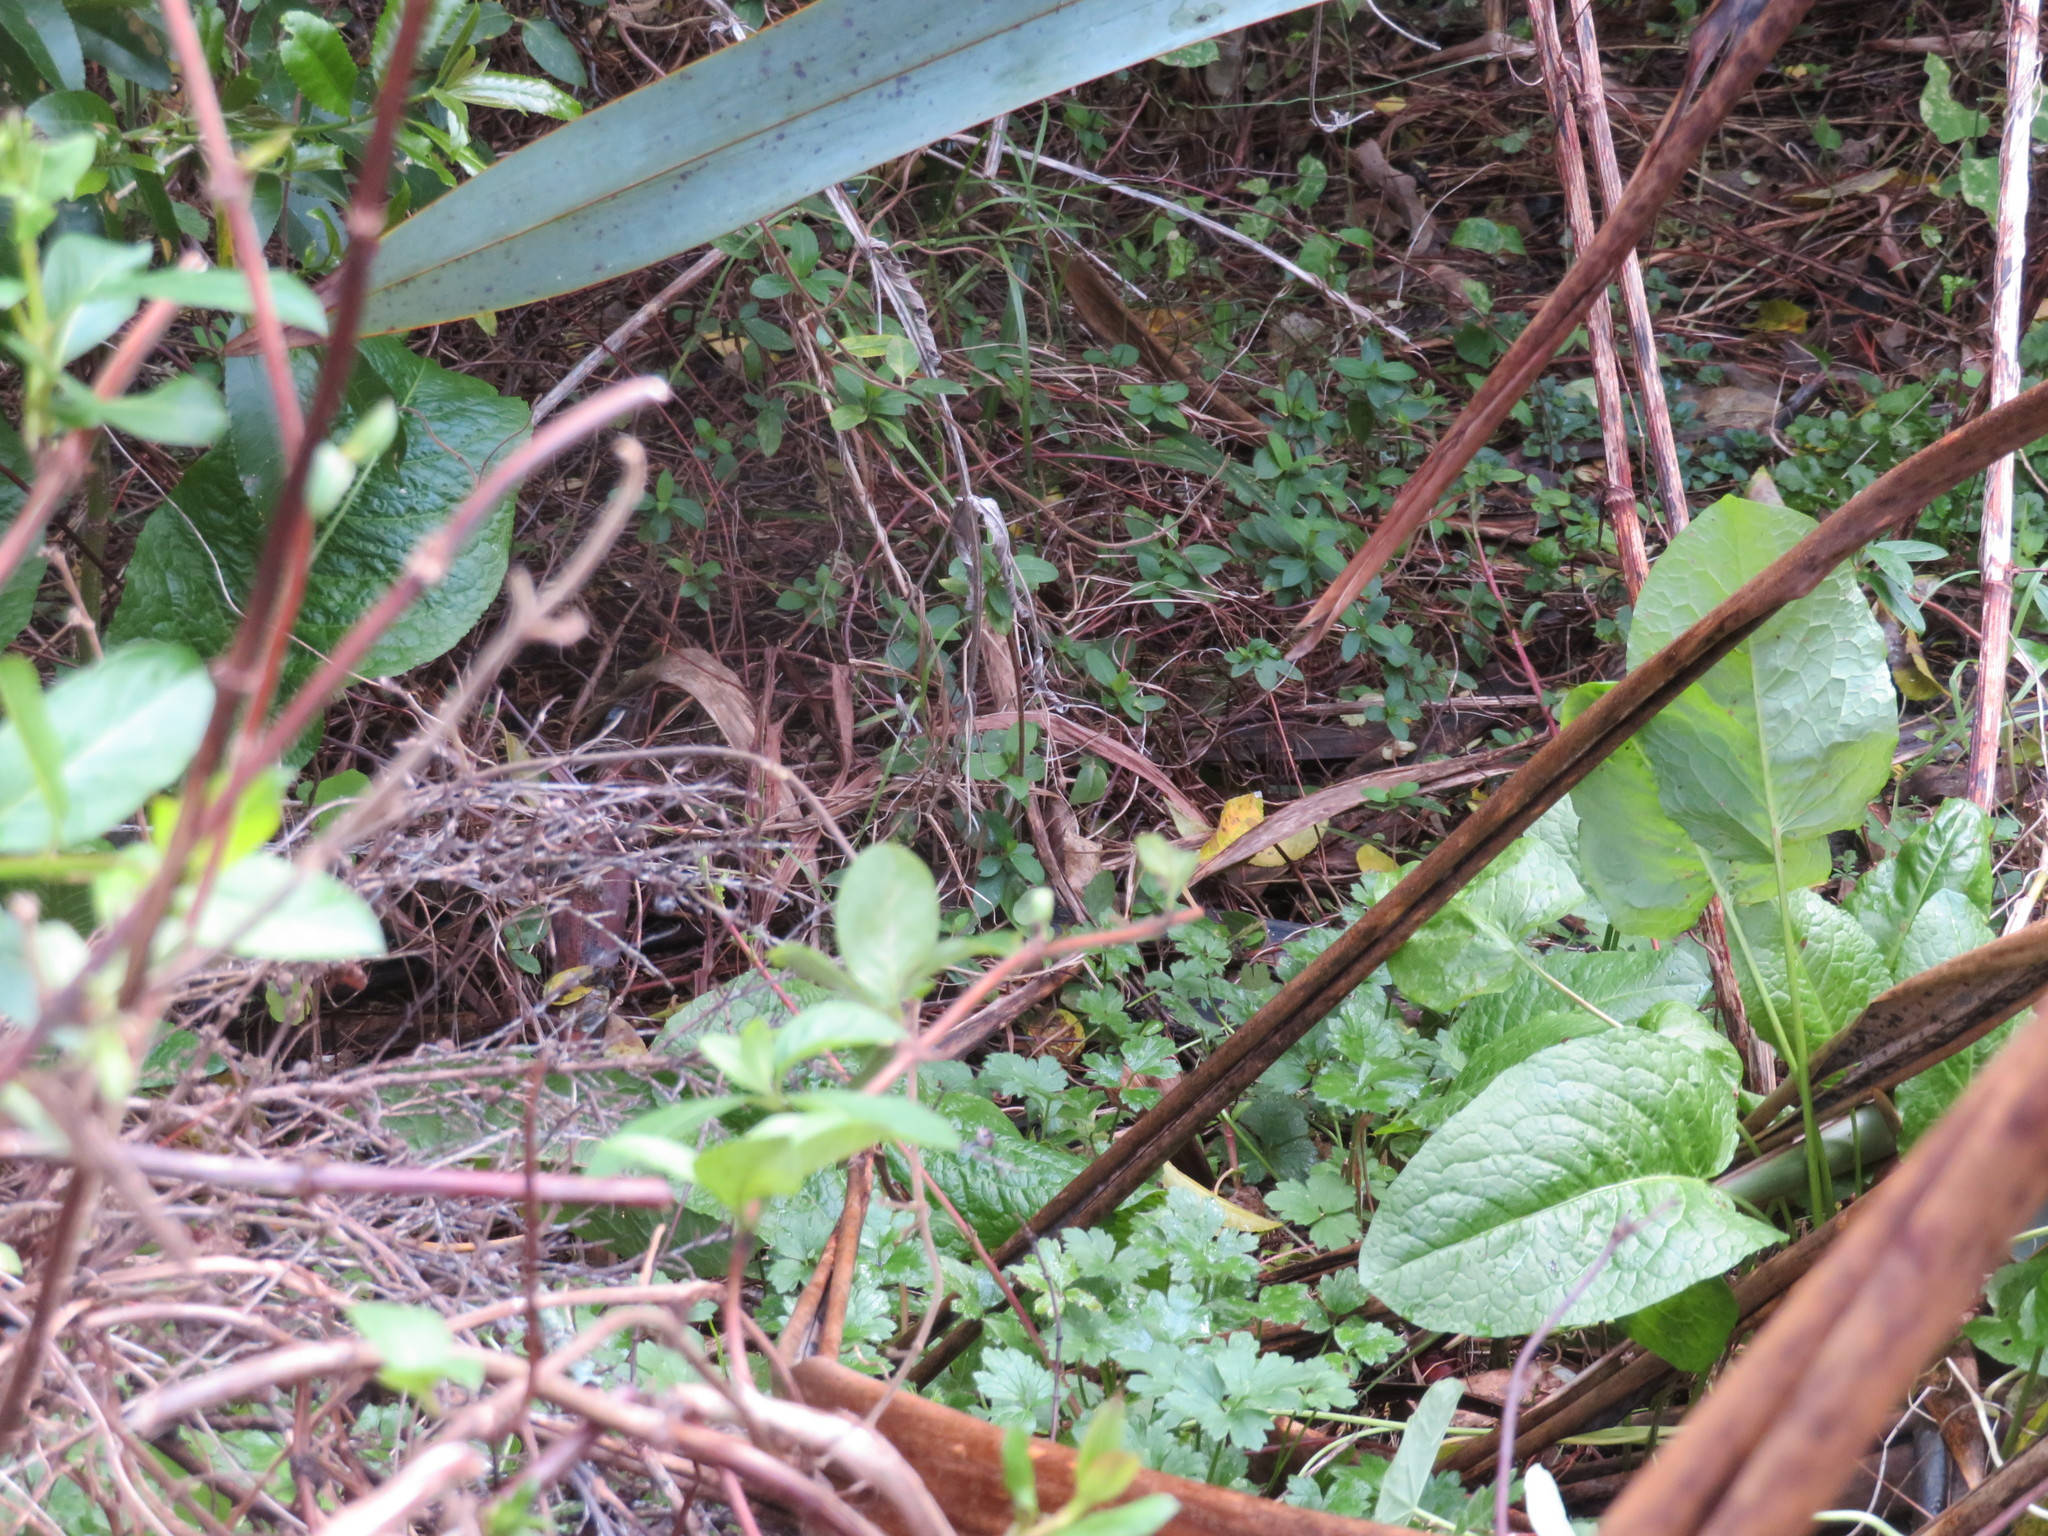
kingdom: Plantae
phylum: Tracheophyta
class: Magnoliopsida
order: Caryophyllales
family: Polygonaceae
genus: Rumex
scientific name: Rumex obtusifolius
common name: Bitter dock
